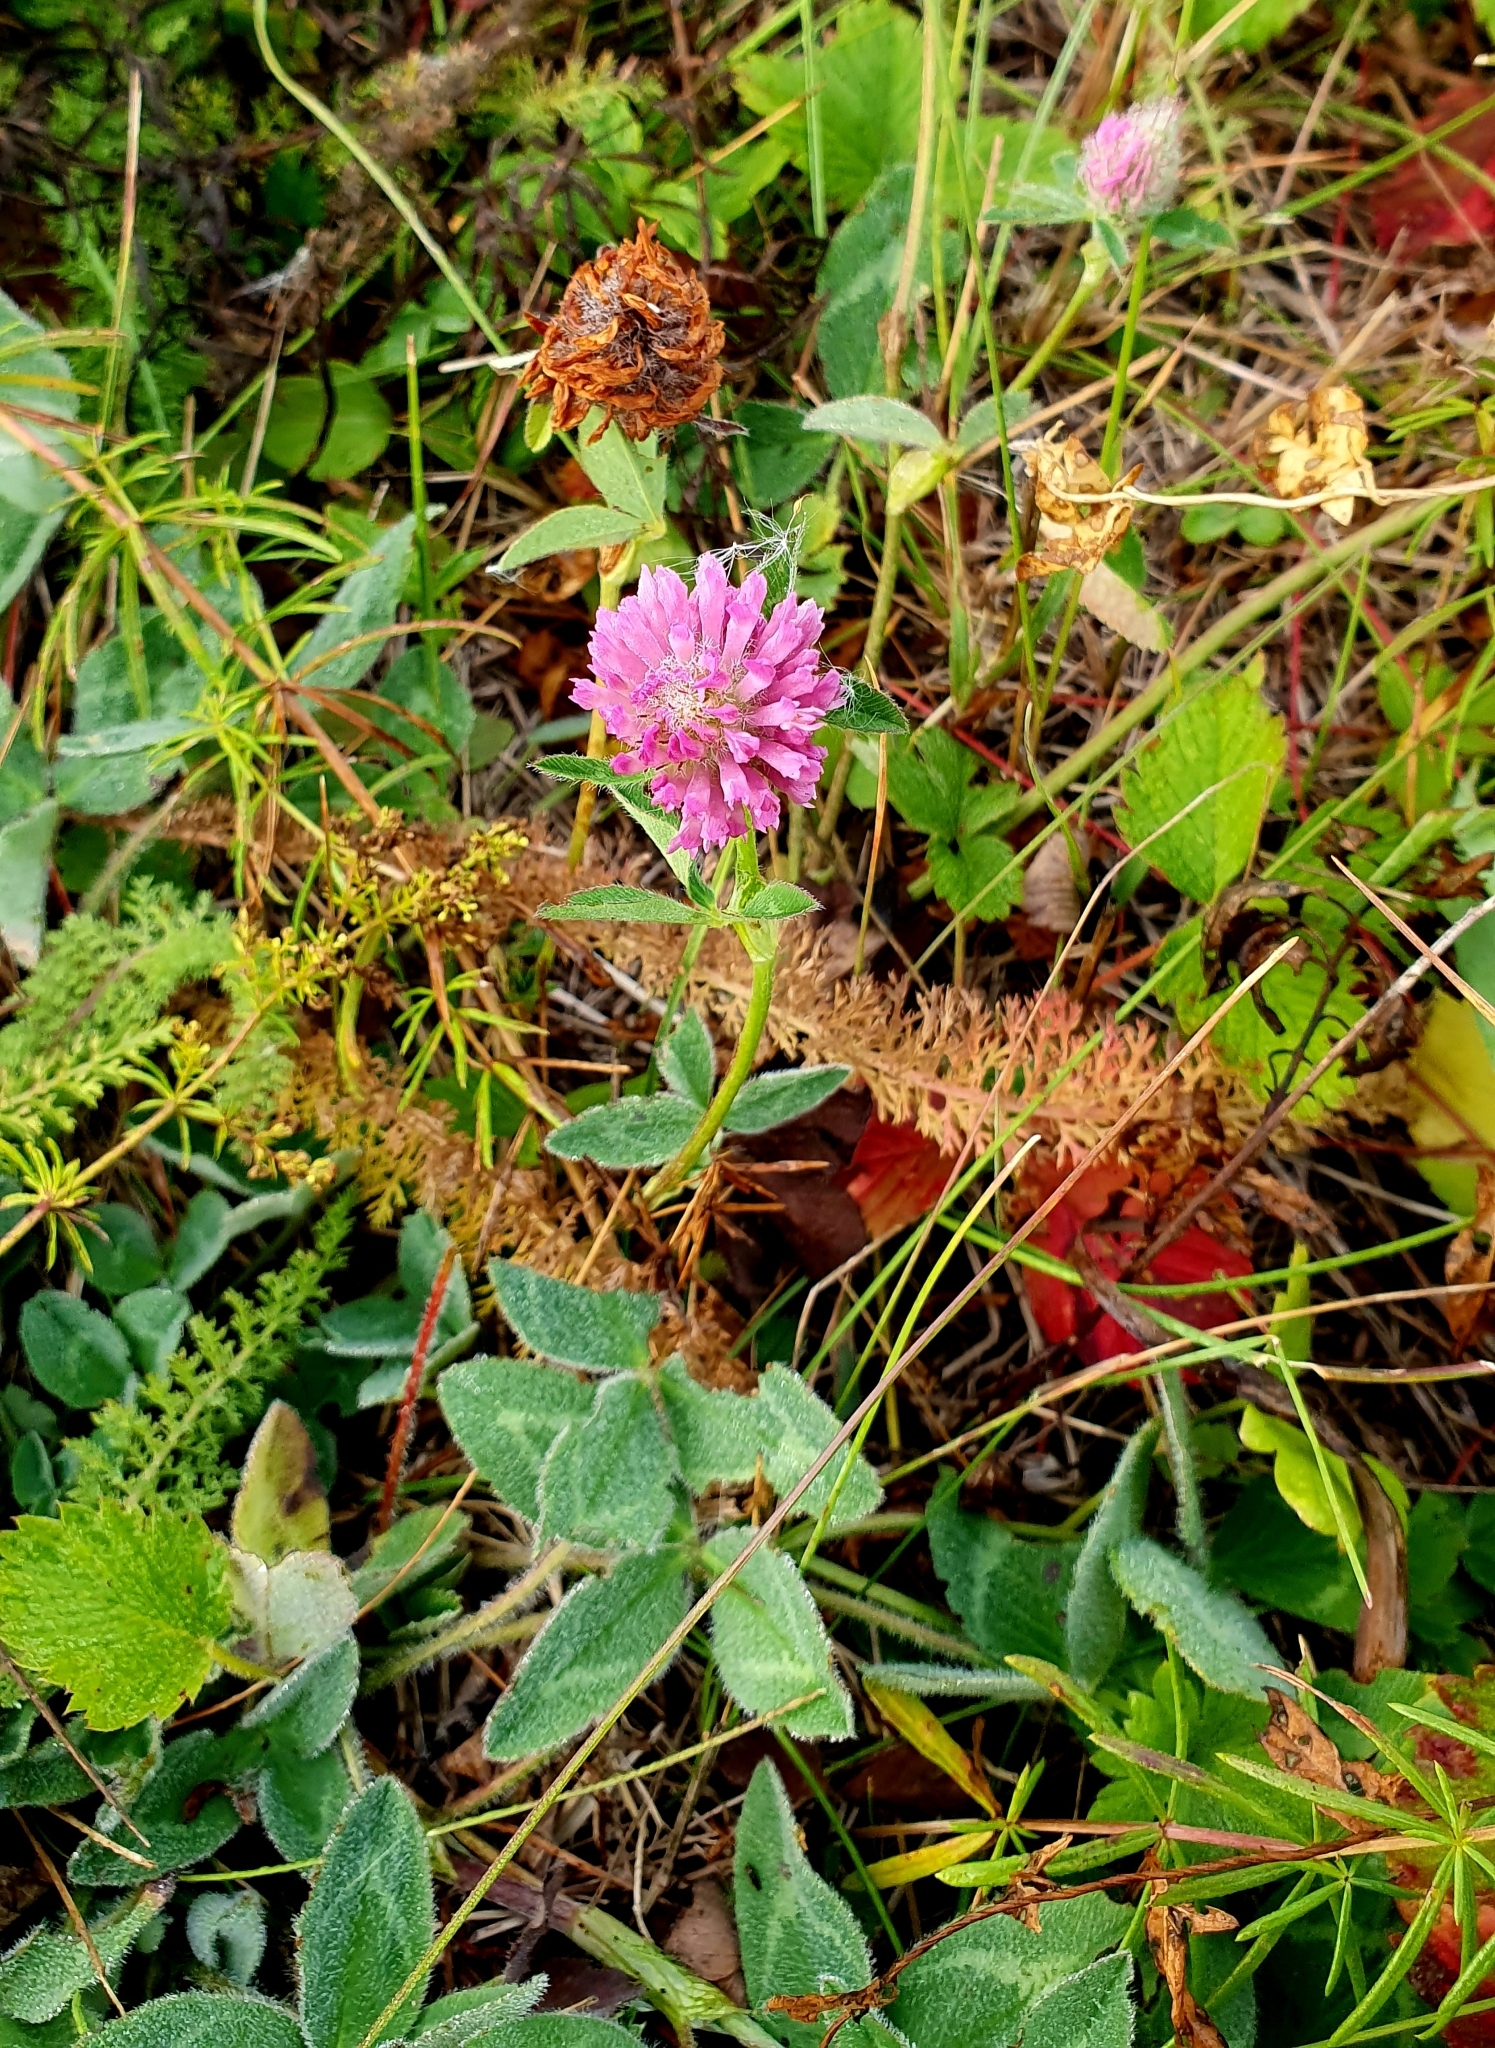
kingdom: Plantae
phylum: Tracheophyta
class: Magnoliopsida
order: Fabales
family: Fabaceae
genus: Trifolium
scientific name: Trifolium pratense
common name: Red clover
